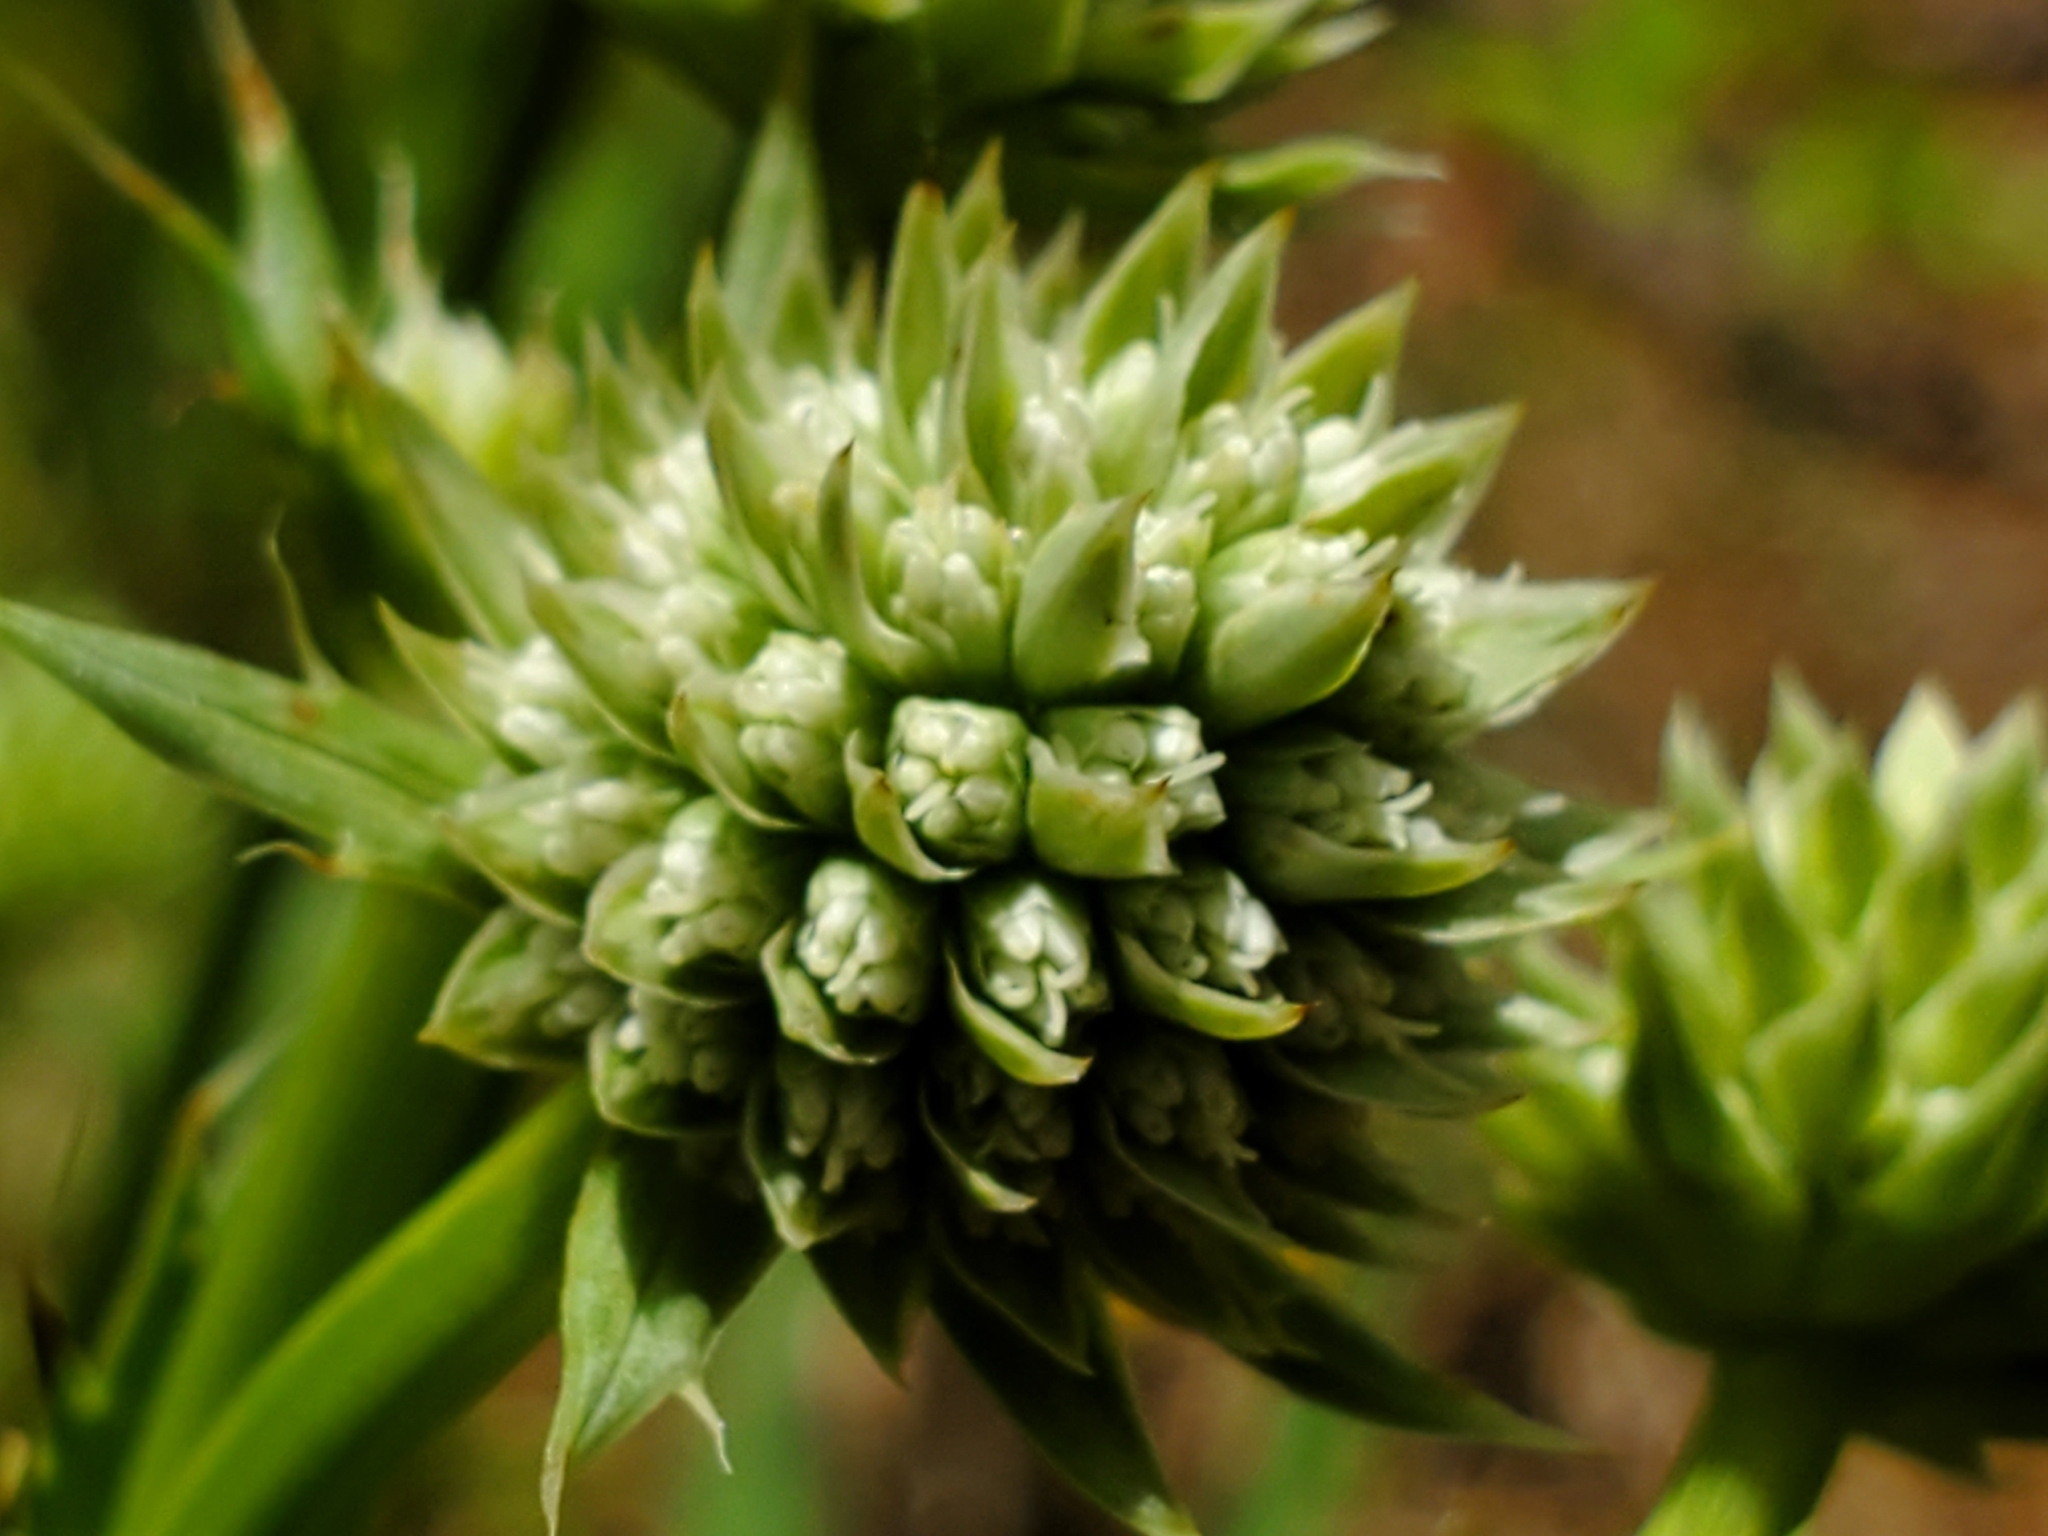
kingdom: Plantae
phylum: Tracheophyta
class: Magnoliopsida
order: Apiales
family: Apiaceae
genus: Eryngium
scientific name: Eryngium yuccifolium
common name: Button eryngo
